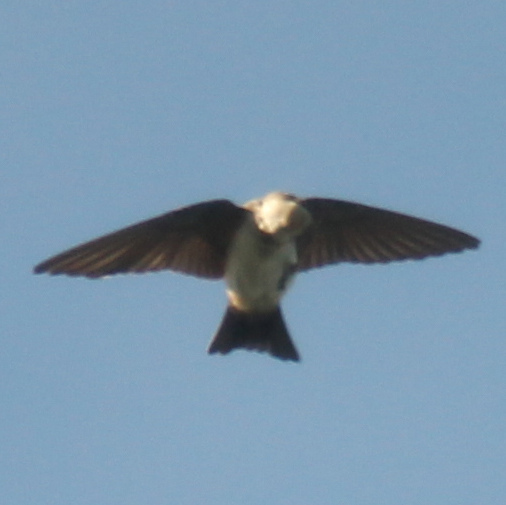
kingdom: Animalia
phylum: Chordata
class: Aves
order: Passeriformes
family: Hirundinidae
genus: Notiochelidon
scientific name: Notiochelidon cyanoleuca
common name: Blue-and-white swallow
